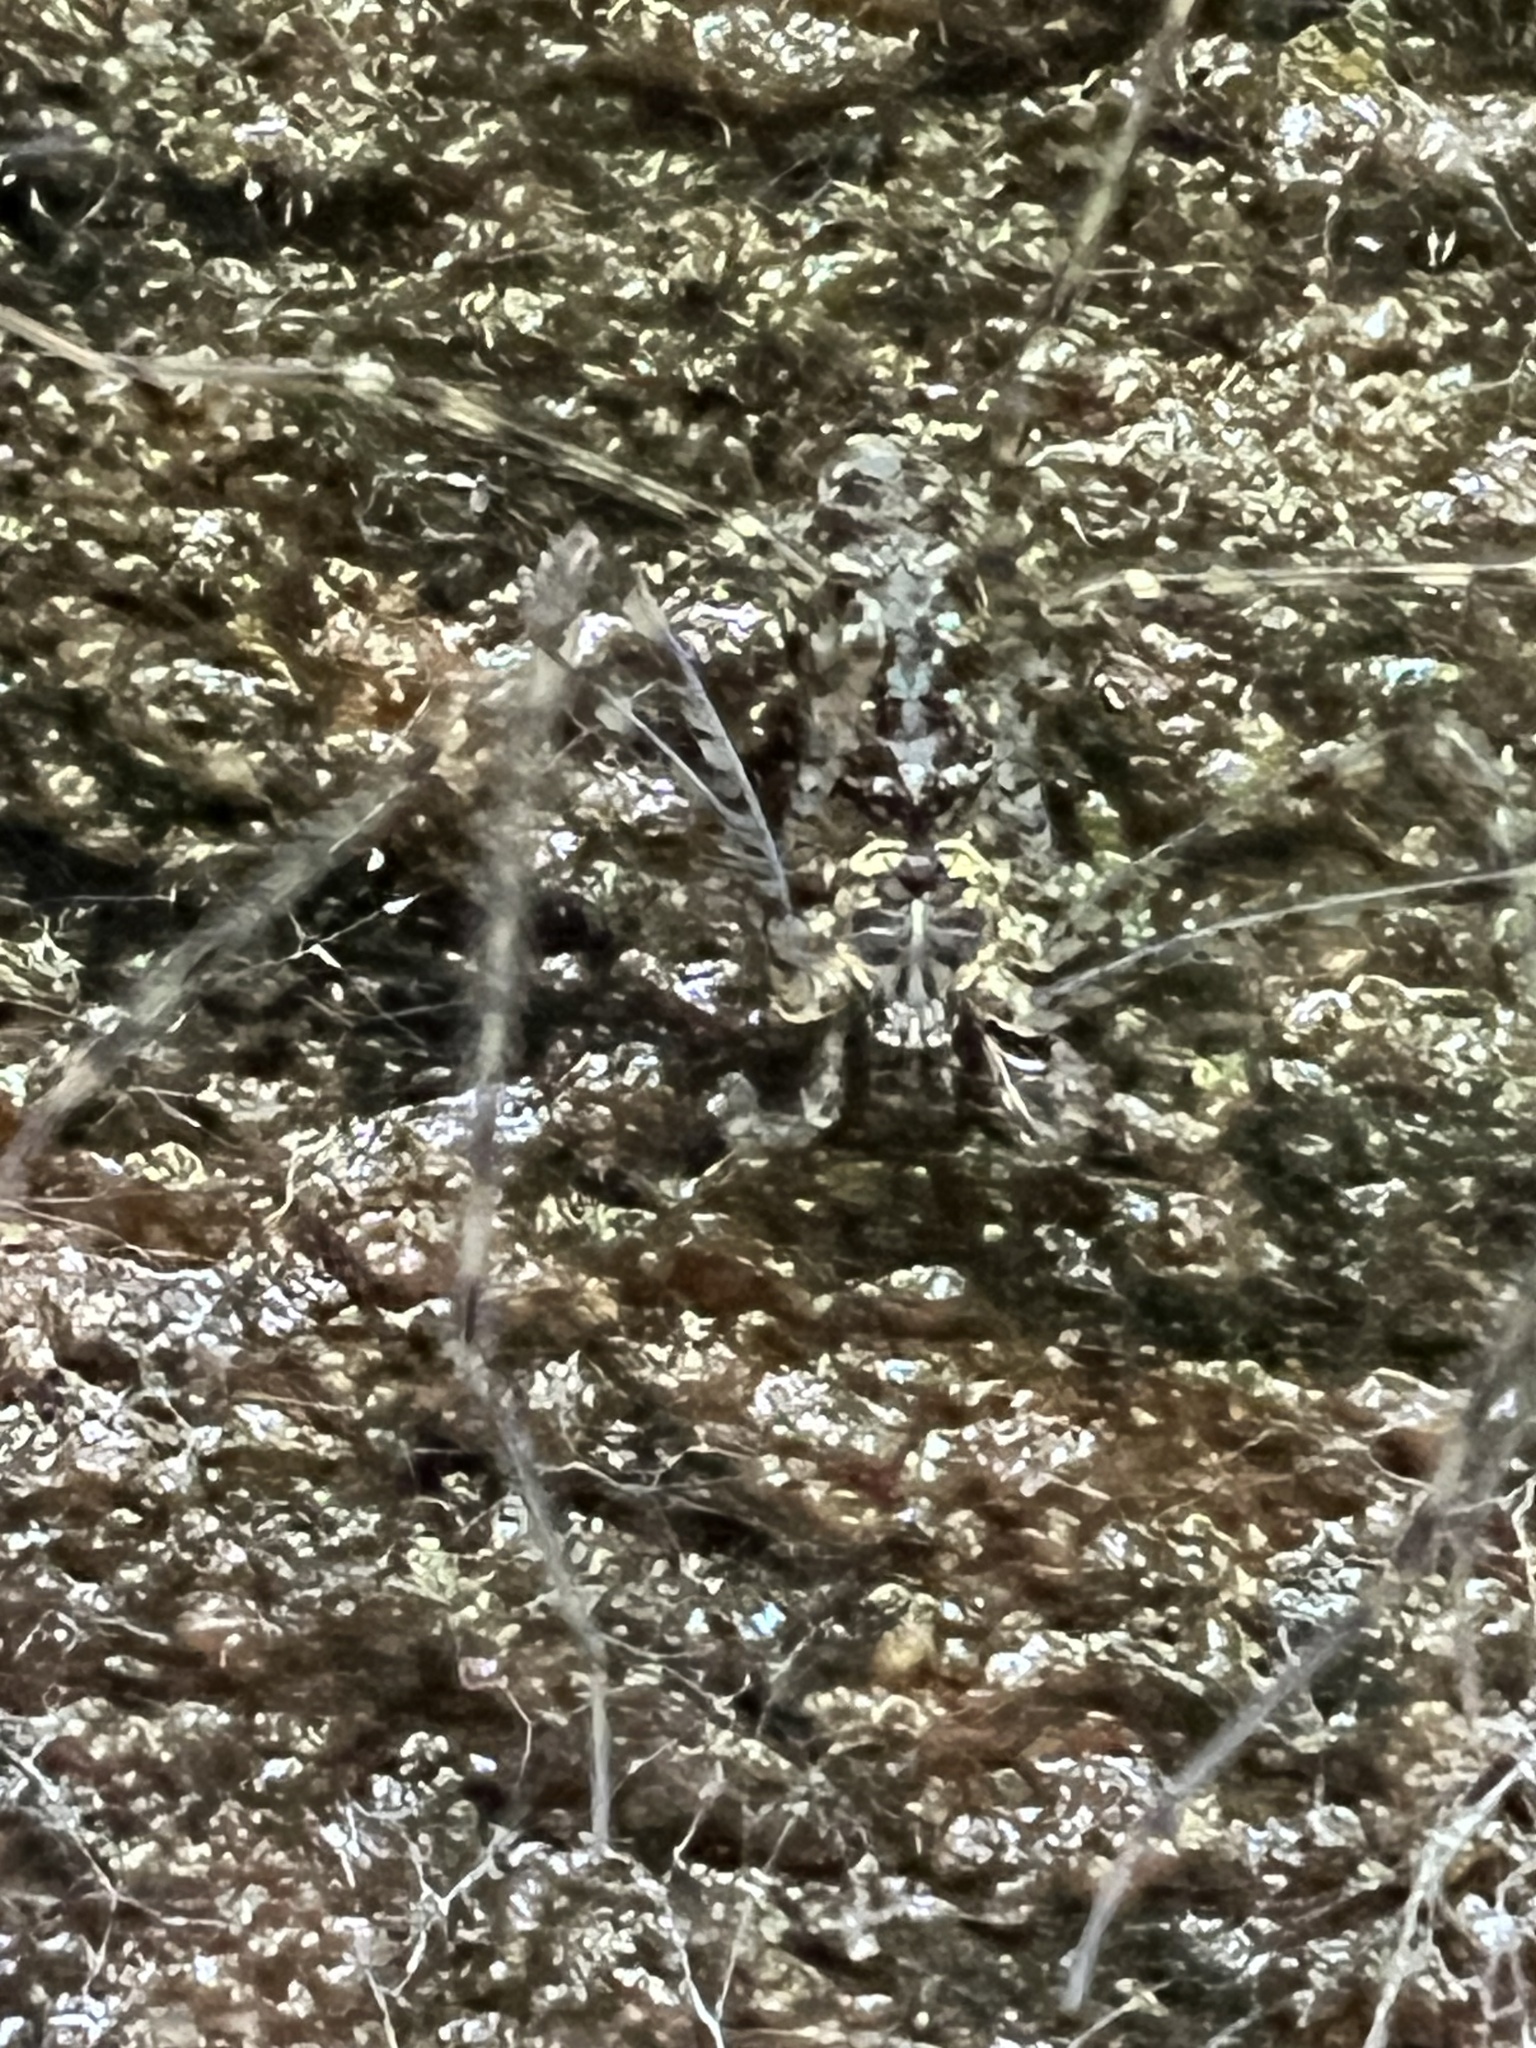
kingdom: Animalia
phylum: Arthropoda
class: Arachnida
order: Araneae
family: Hypochilidae
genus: Hypochilus
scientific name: Hypochilus pococki
